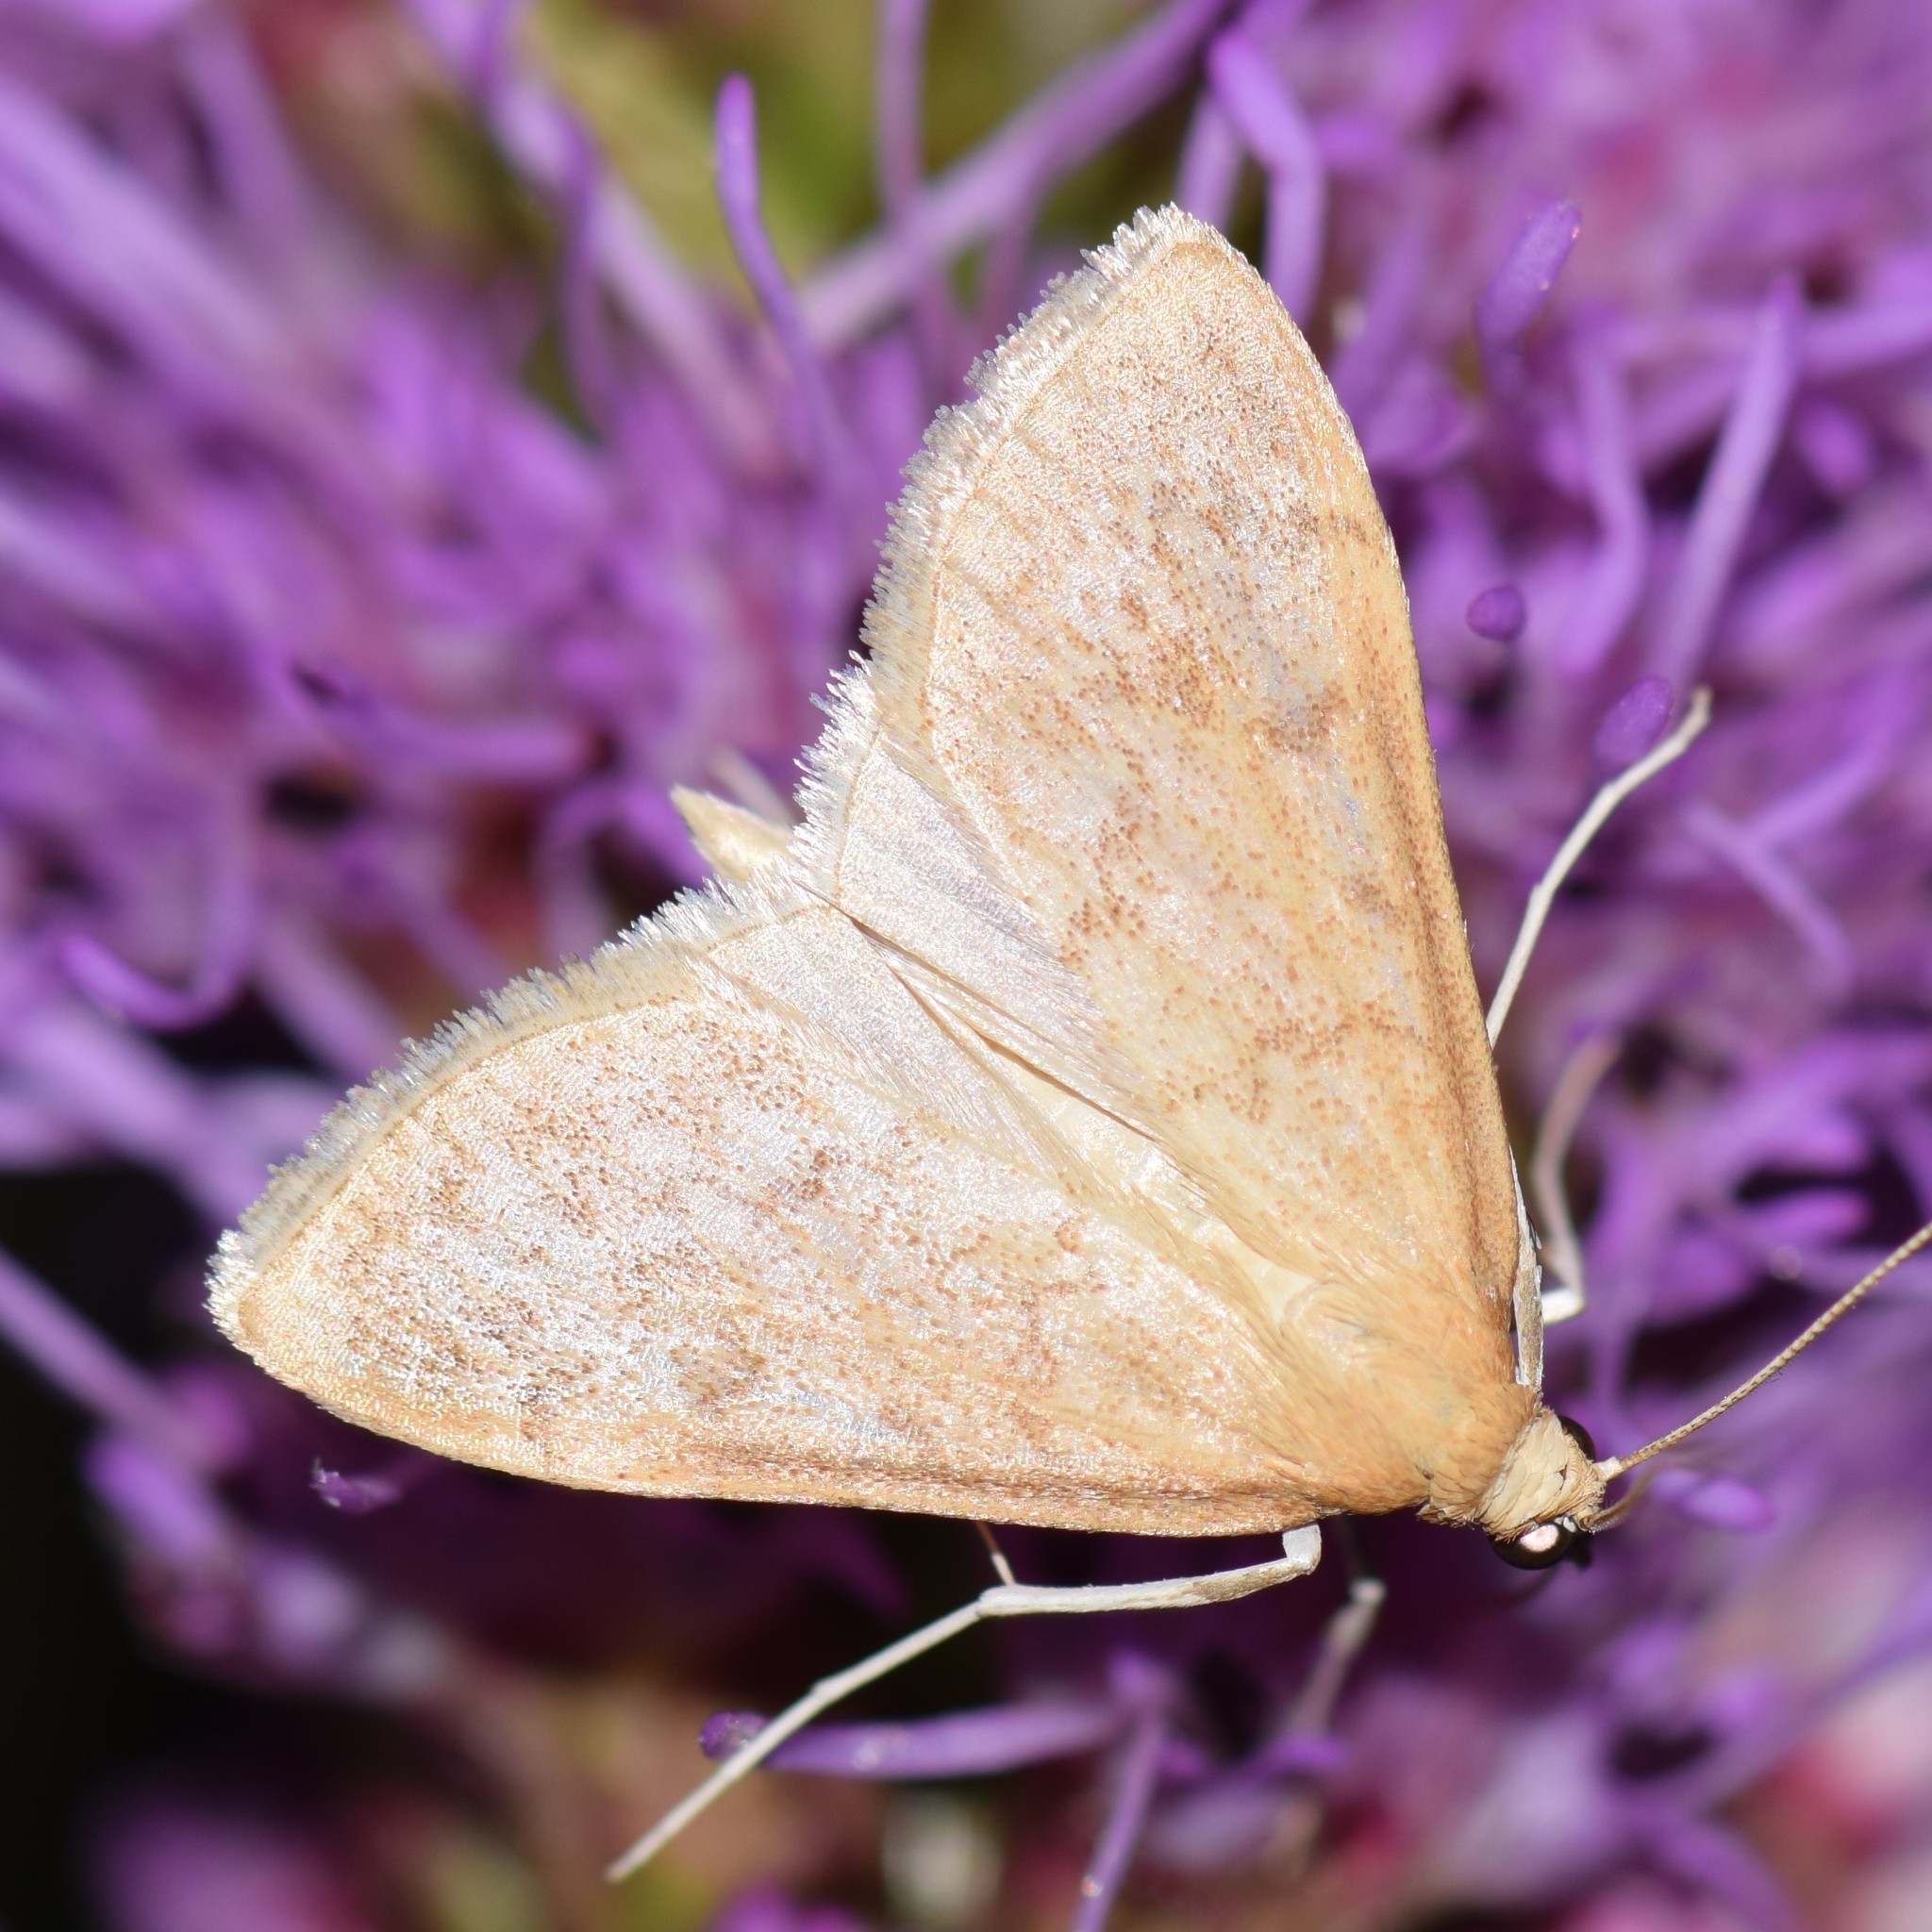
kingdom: Animalia
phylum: Arthropoda
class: Insecta
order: Lepidoptera
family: Crambidae
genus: Saucrobotys
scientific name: Saucrobotys futilalis
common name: Dogbane saucrobotys moth
